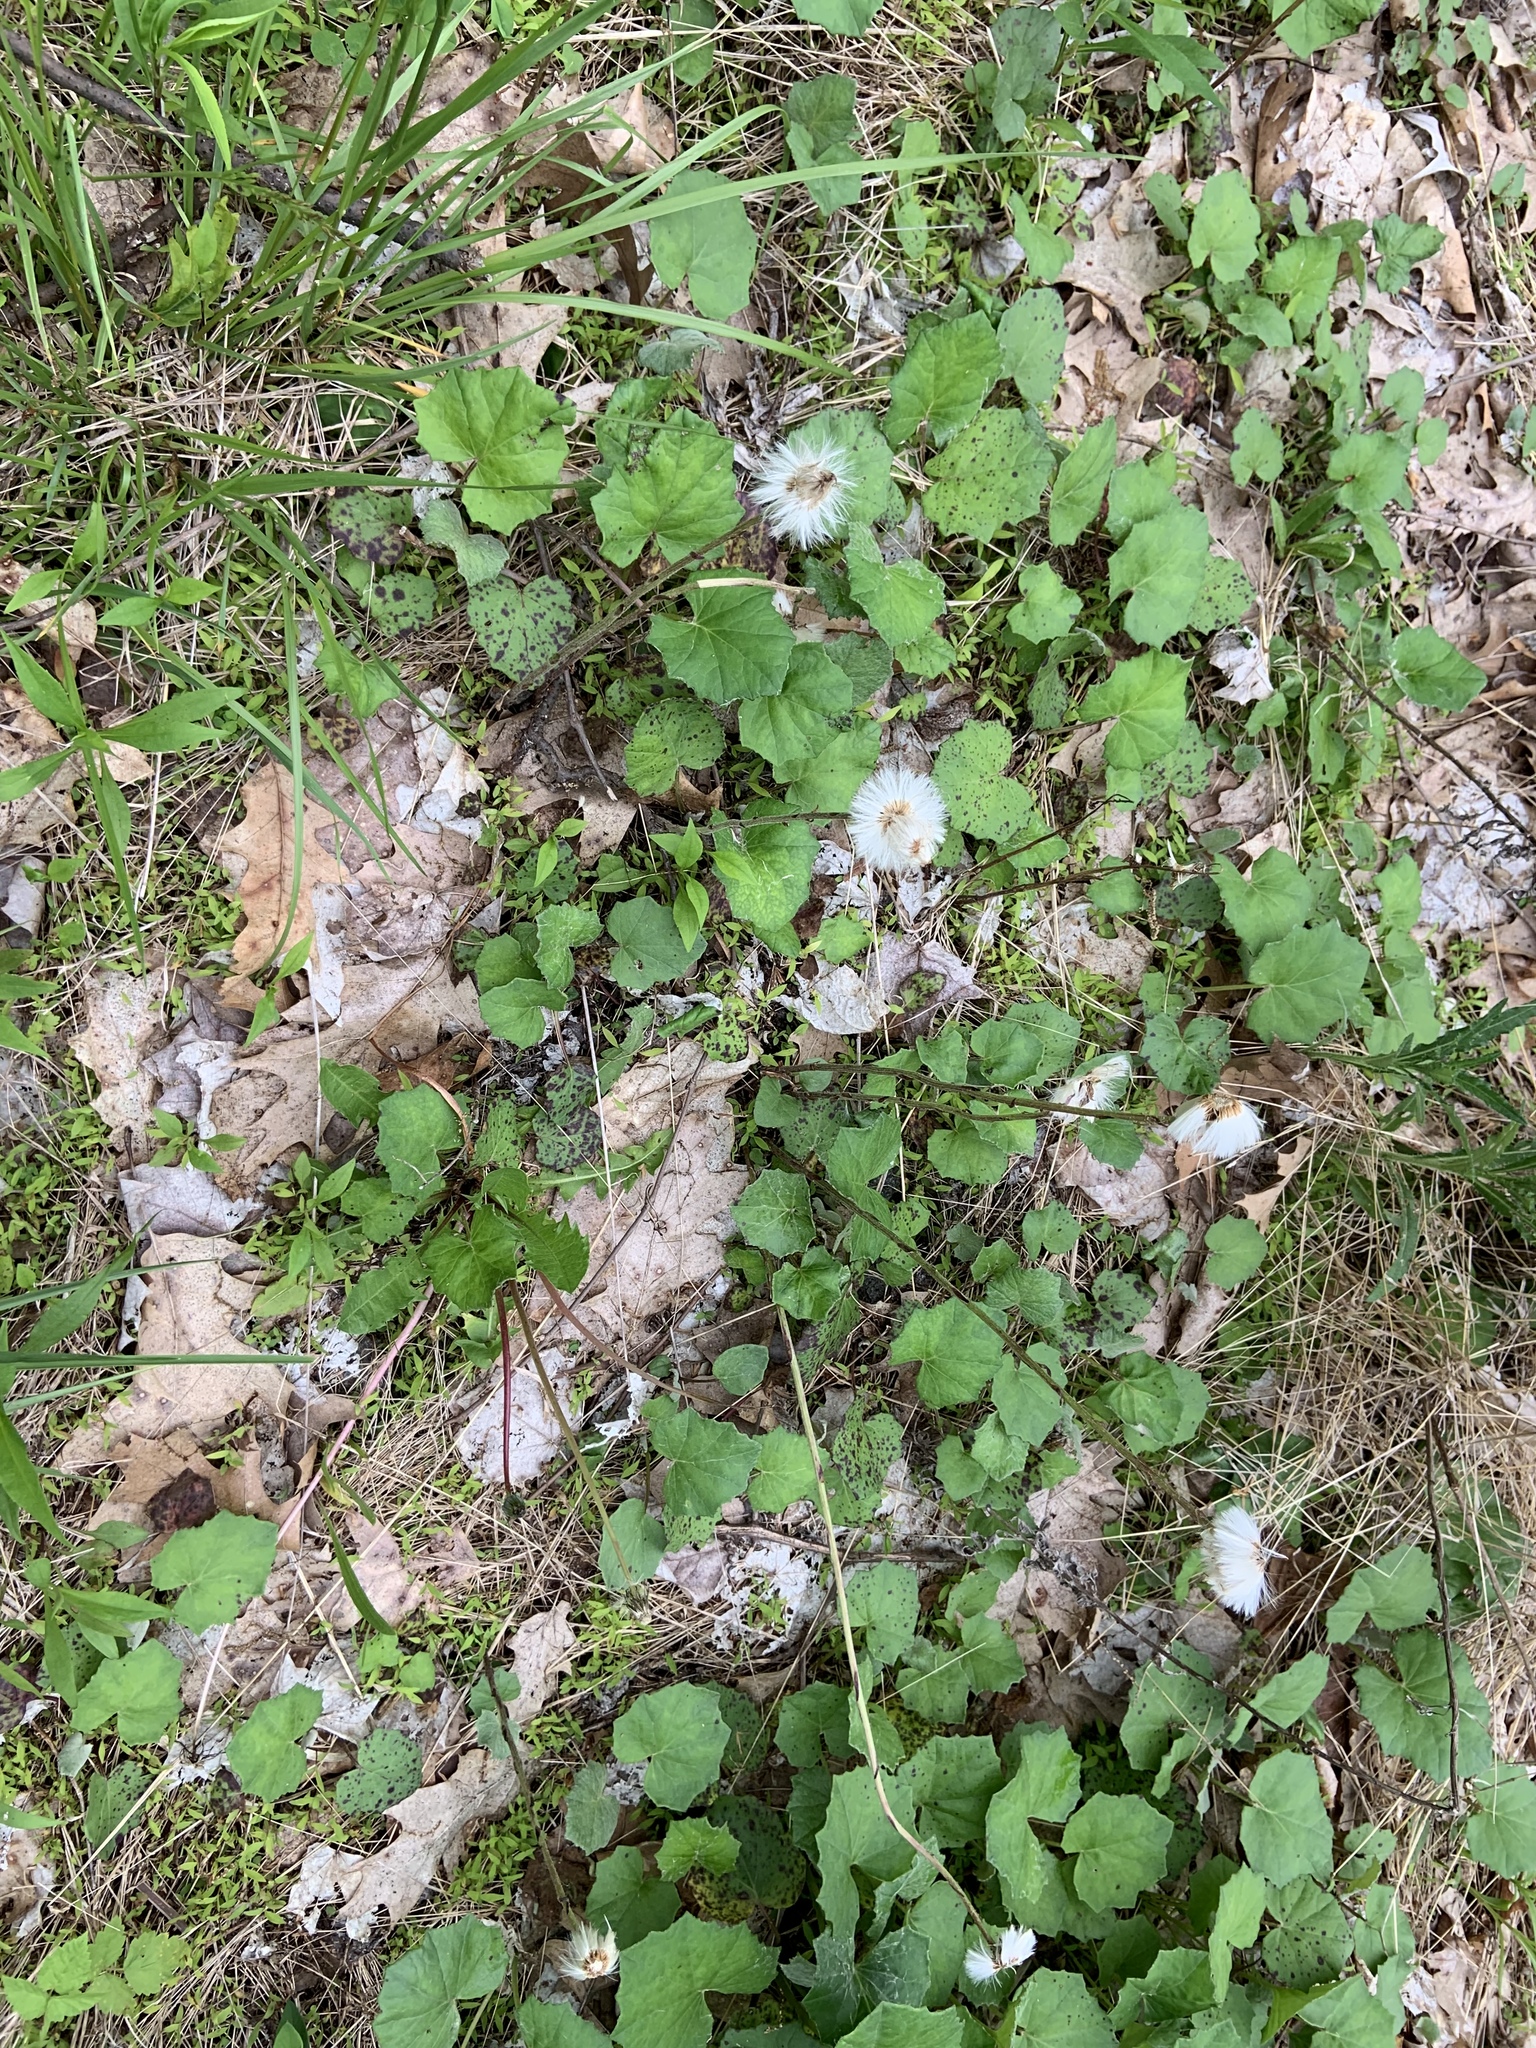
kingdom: Plantae
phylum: Tracheophyta
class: Magnoliopsida
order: Asterales
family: Asteraceae
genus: Tussilago
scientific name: Tussilago farfara
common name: Coltsfoot
